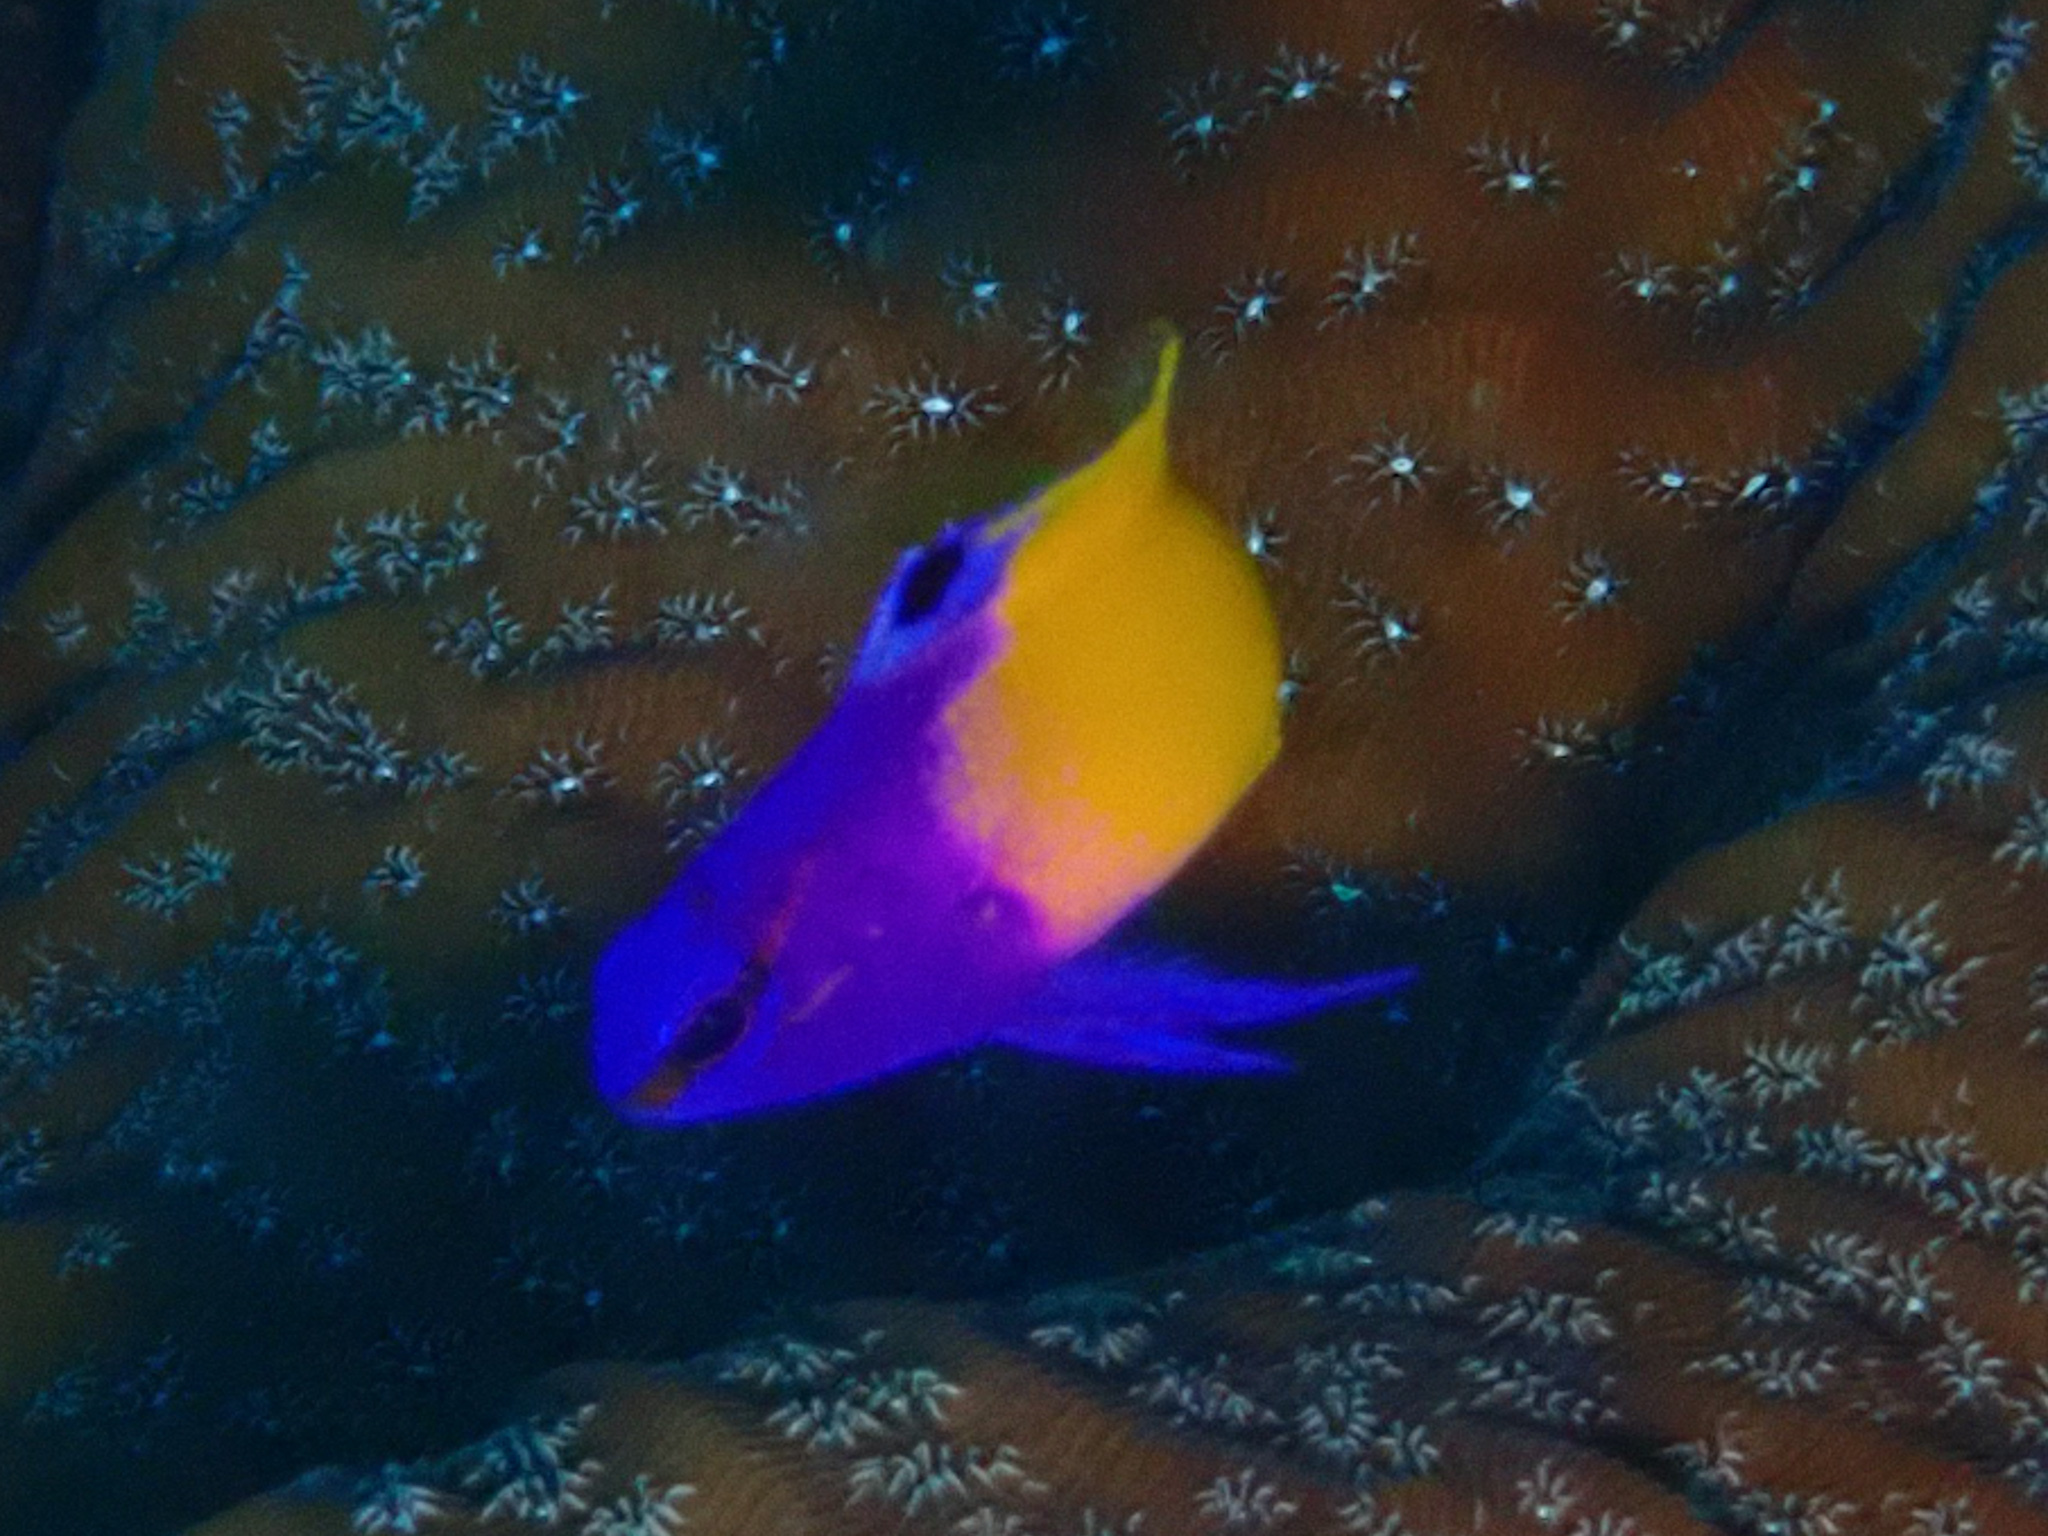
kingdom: Animalia
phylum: Chordata
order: Perciformes
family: Grammatidae
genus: Gramma
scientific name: Gramma loreto
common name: Fairy basslet
